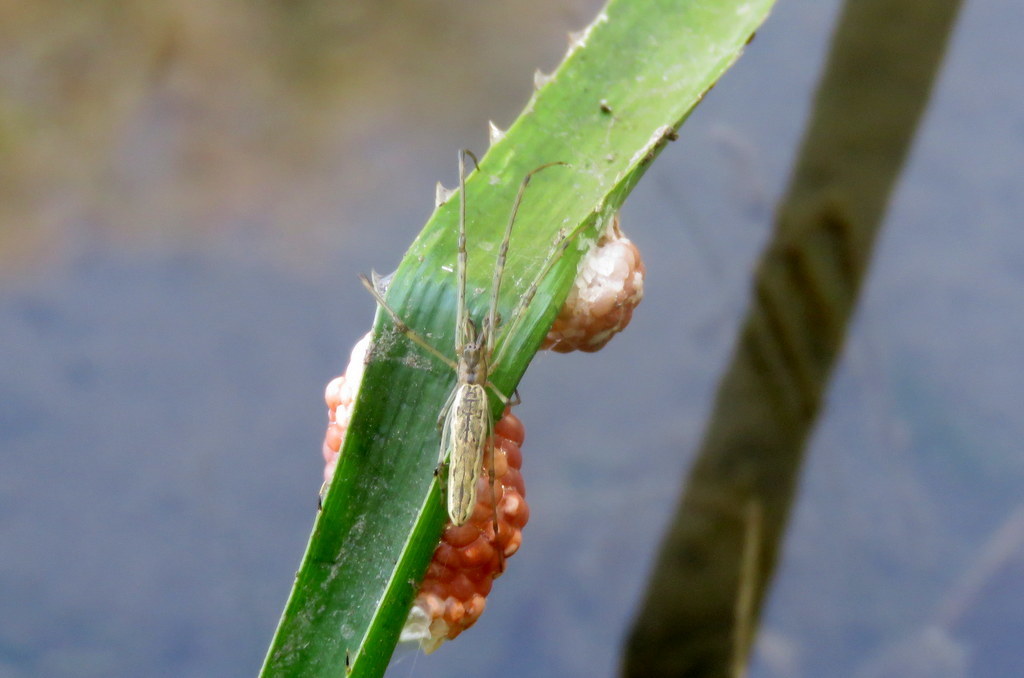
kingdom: Animalia
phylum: Arthropoda
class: Arachnida
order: Araneae
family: Tetragnathidae
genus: Tetragnatha
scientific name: Tetragnatha
